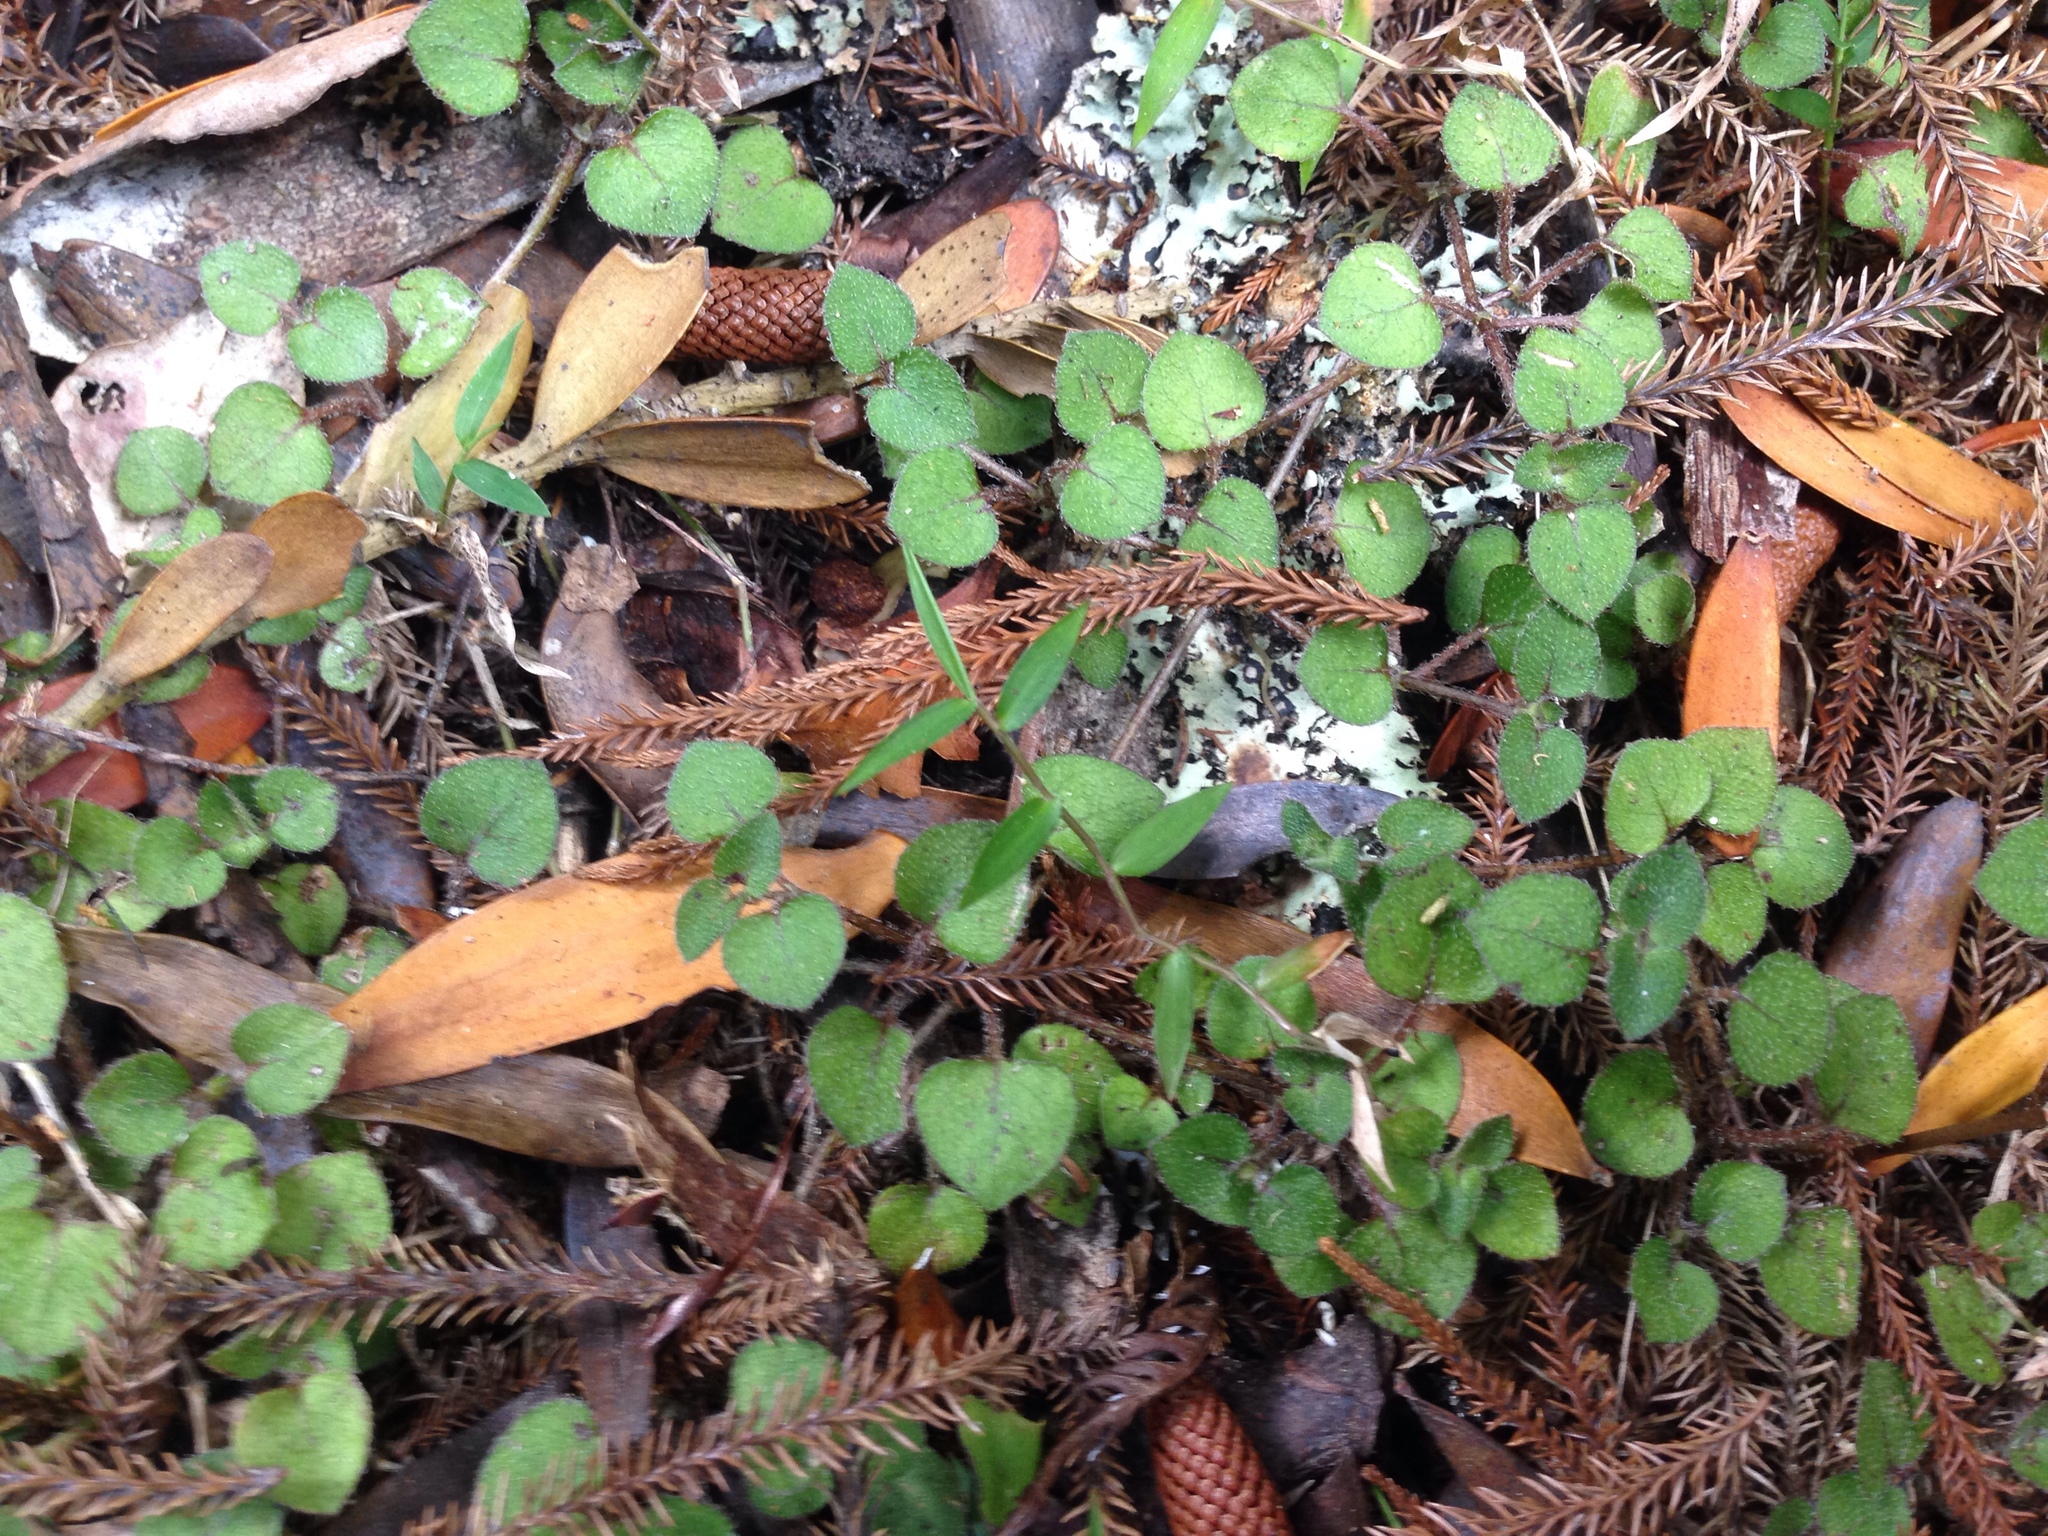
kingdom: Plantae
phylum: Tracheophyta
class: Magnoliopsida
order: Gentianales
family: Rubiaceae
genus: Nertera
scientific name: Nertera dichondrifolia
